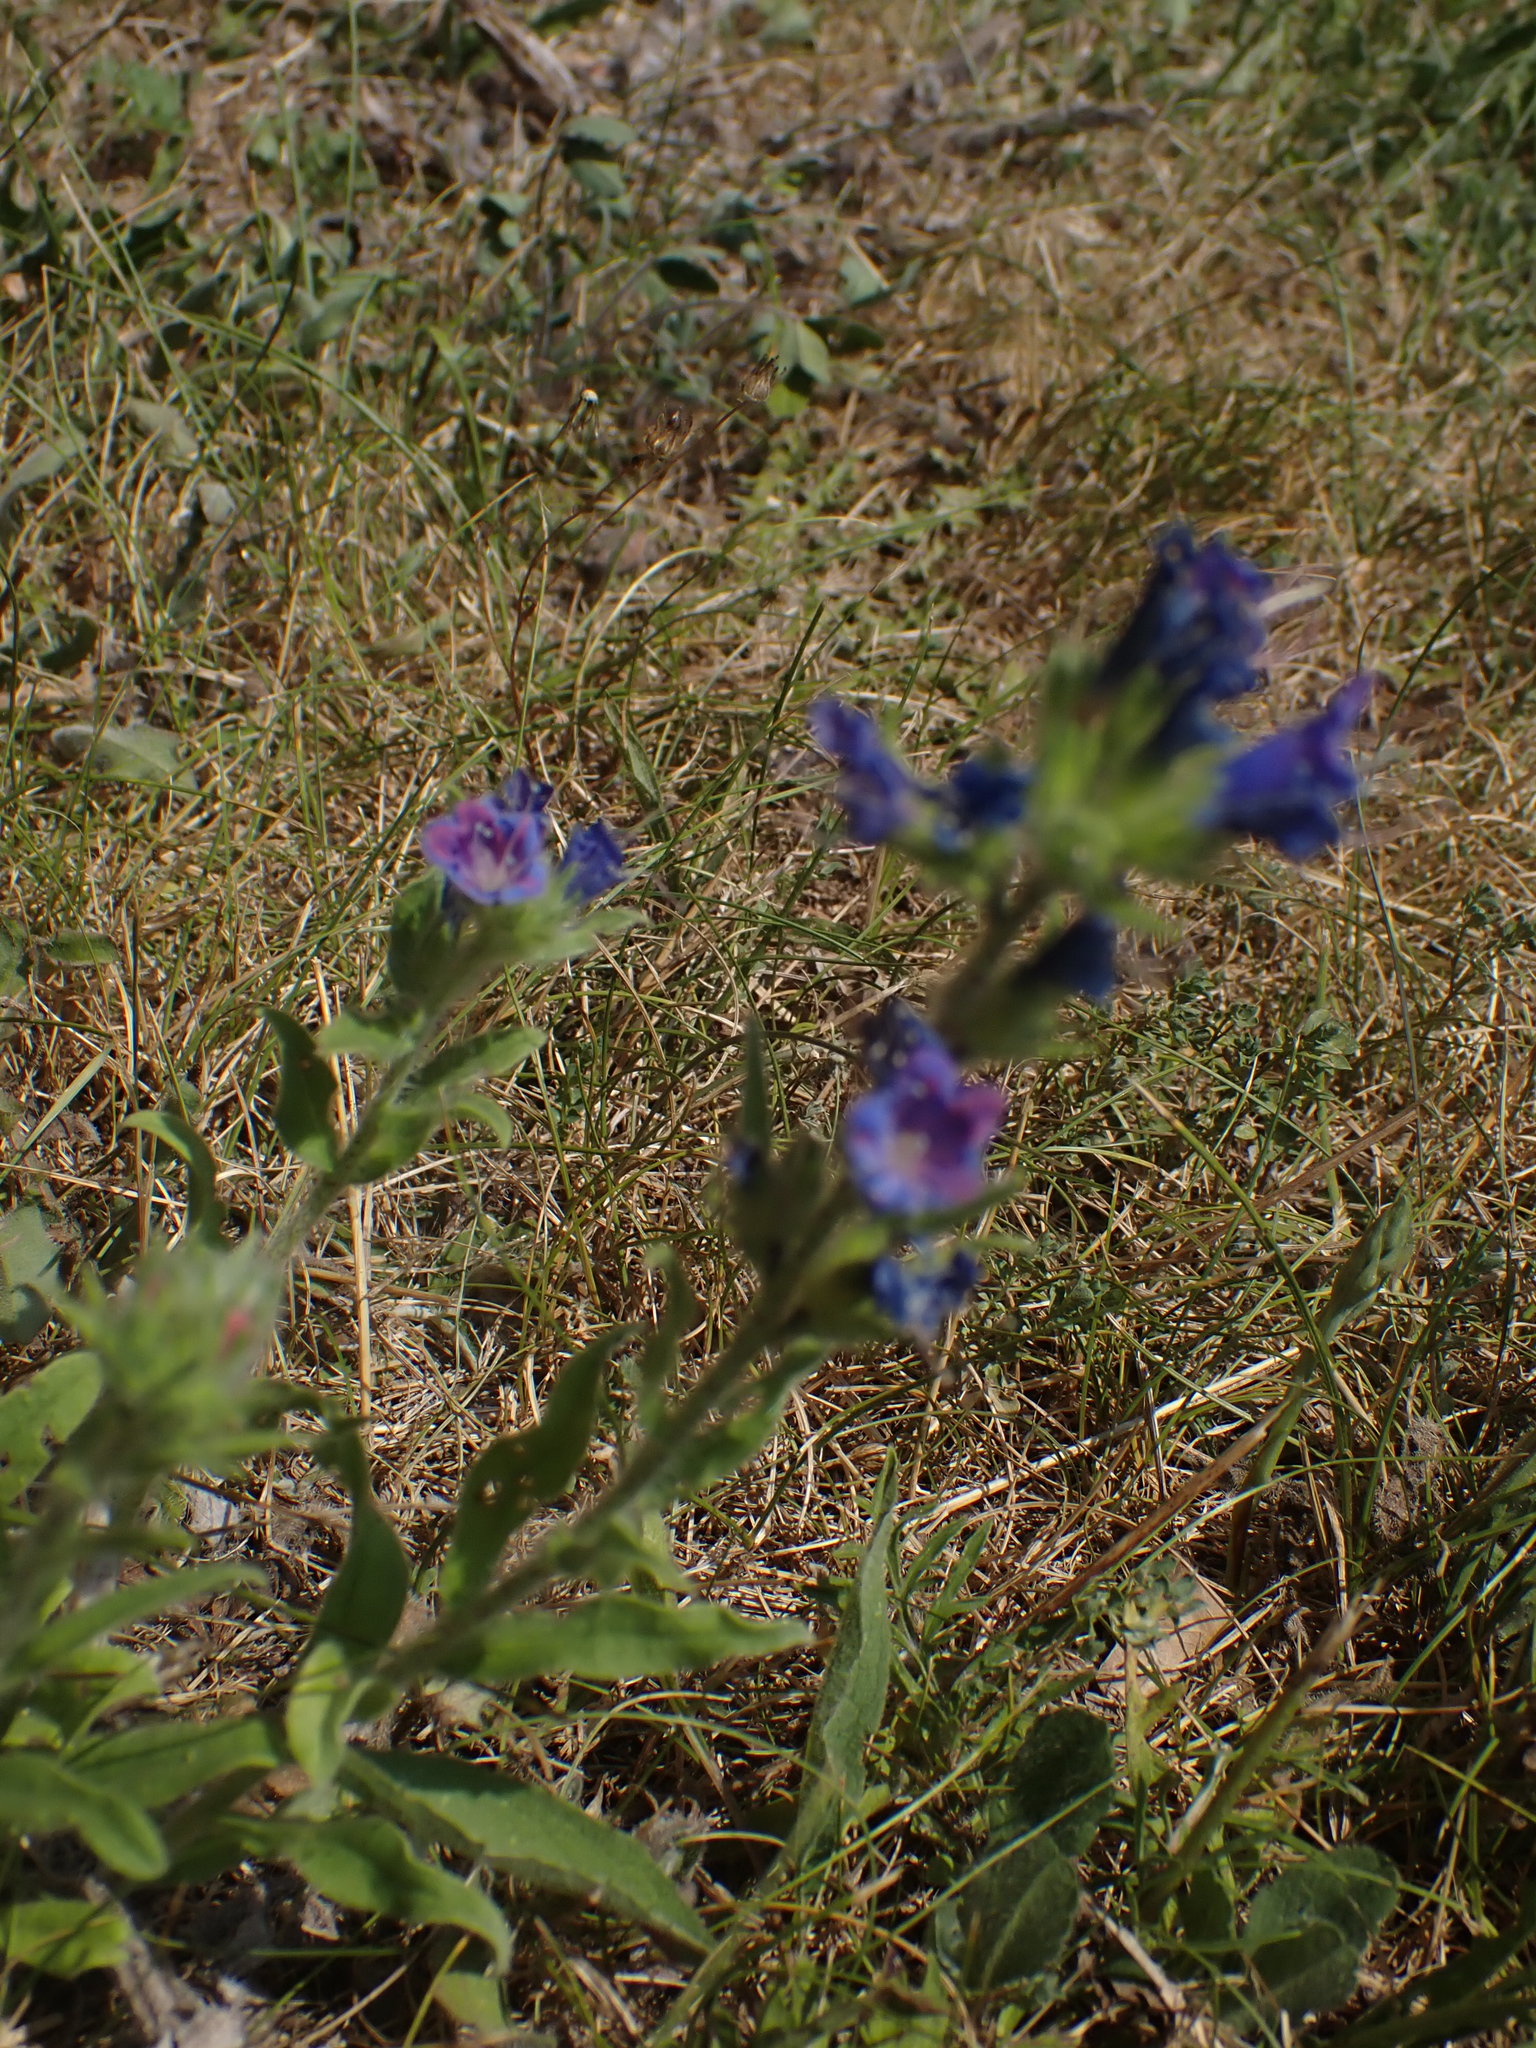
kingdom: Plantae
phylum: Tracheophyta
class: Magnoliopsida
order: Boraginales
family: Boraginaceae
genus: Echium
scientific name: Echium vulgare
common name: Common viper's bugloss
